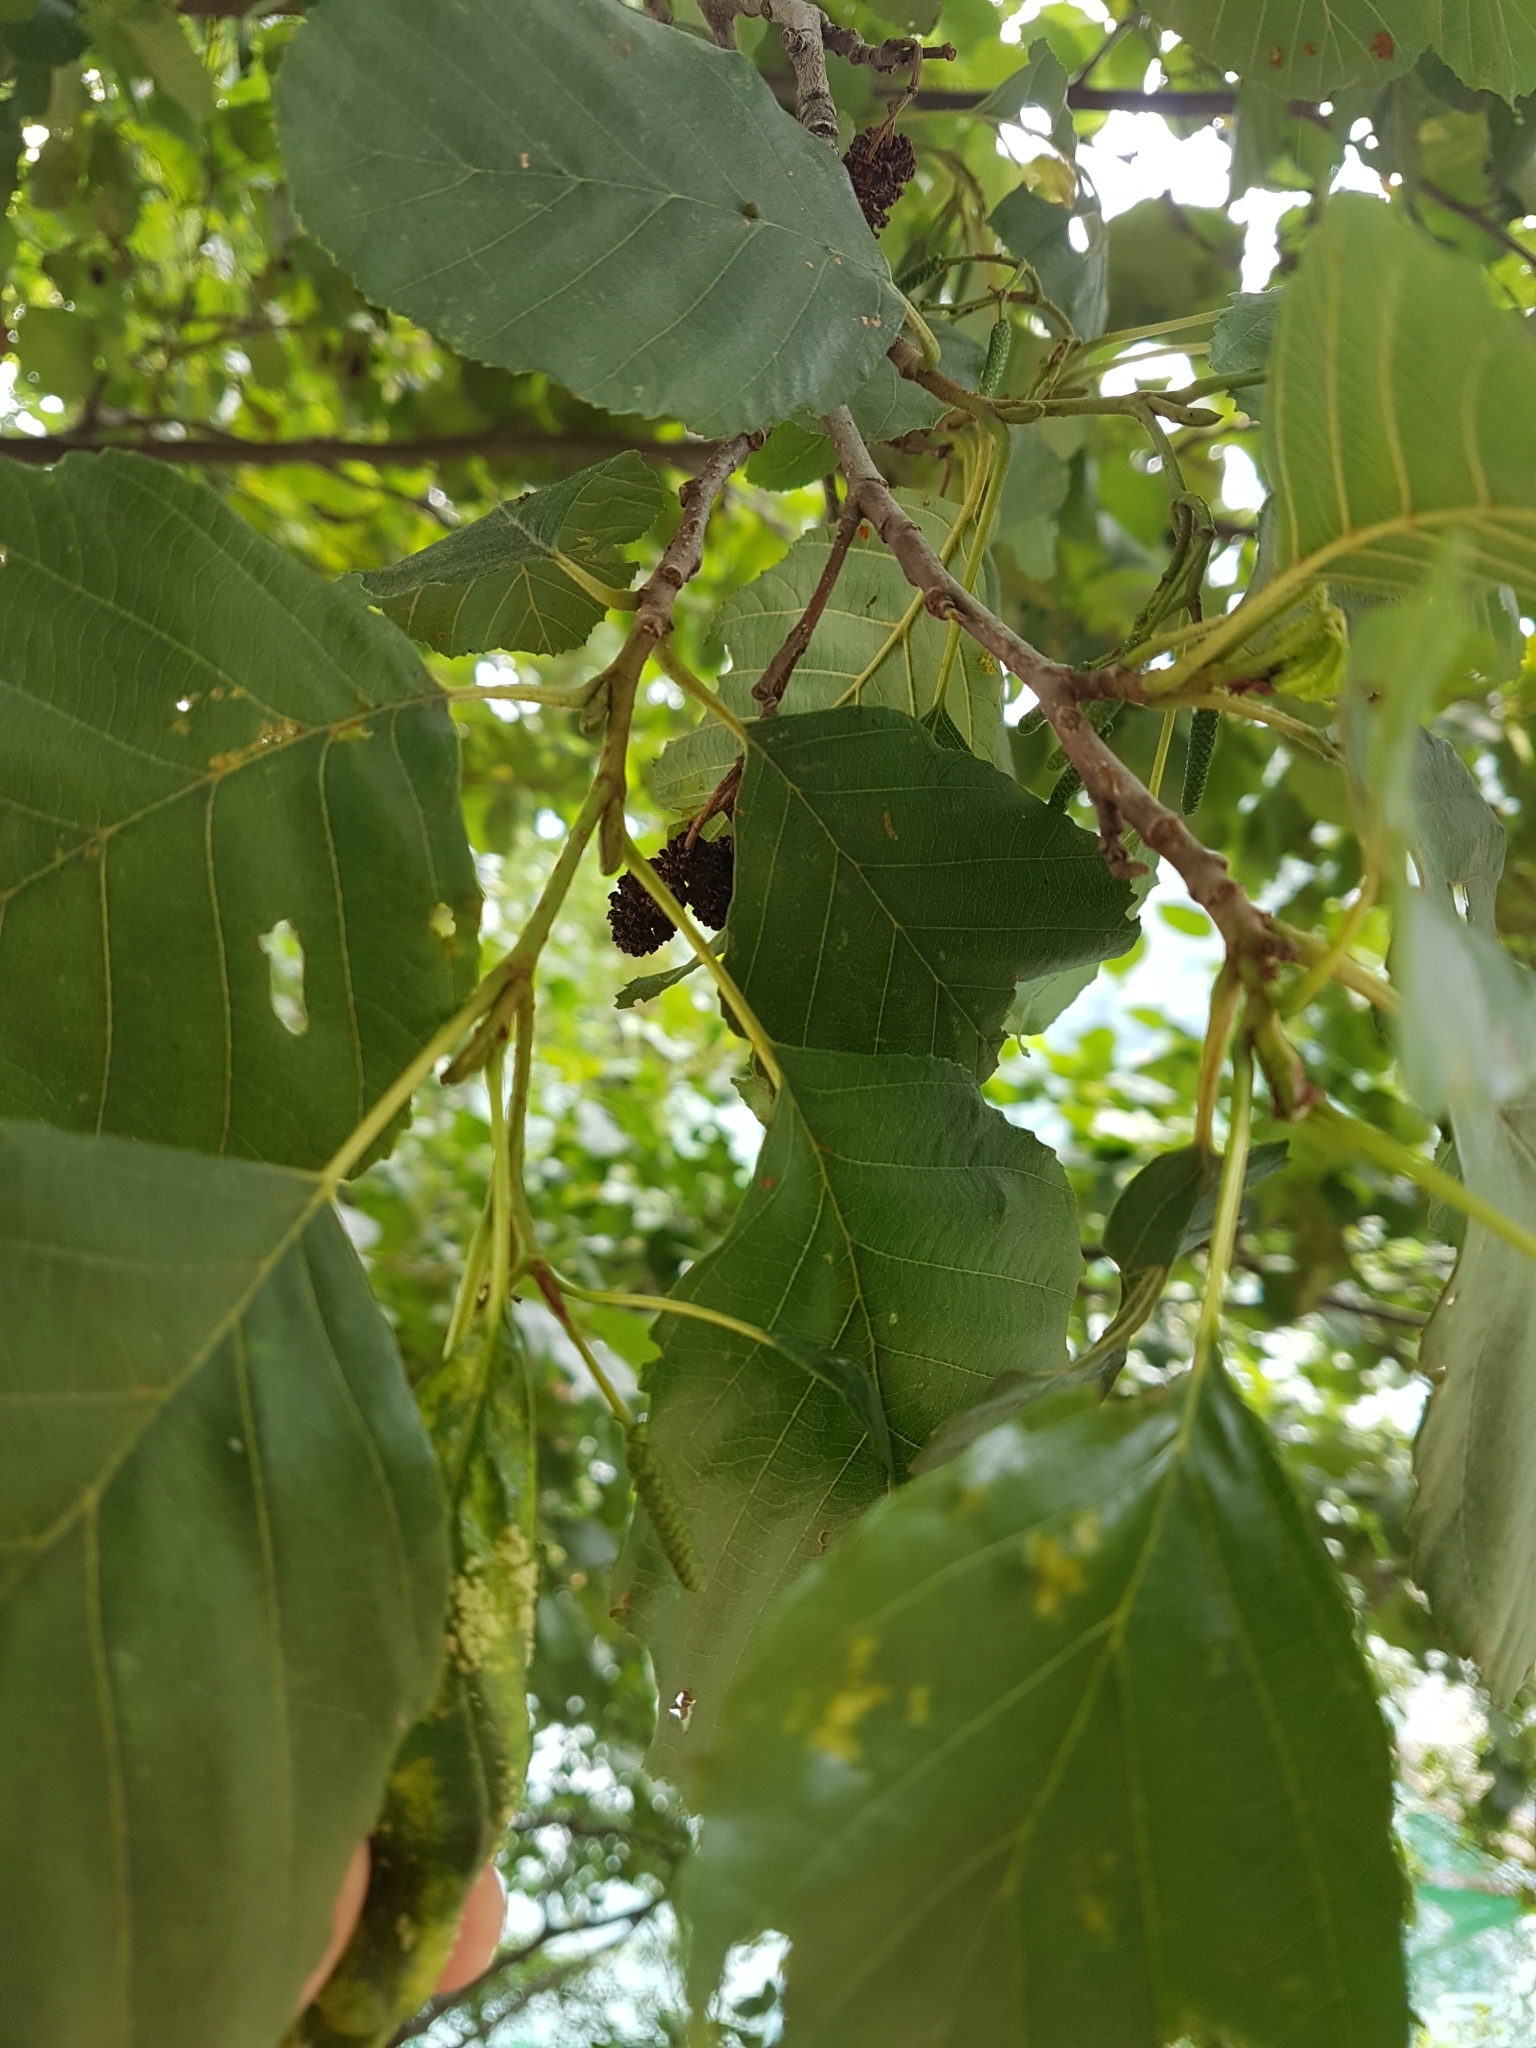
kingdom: Plantae
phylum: Tracheophyta
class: Magnoliopsida
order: Fagales
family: Betulaceae
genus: Alnus
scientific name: Alnus glutinosa
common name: Black alder
